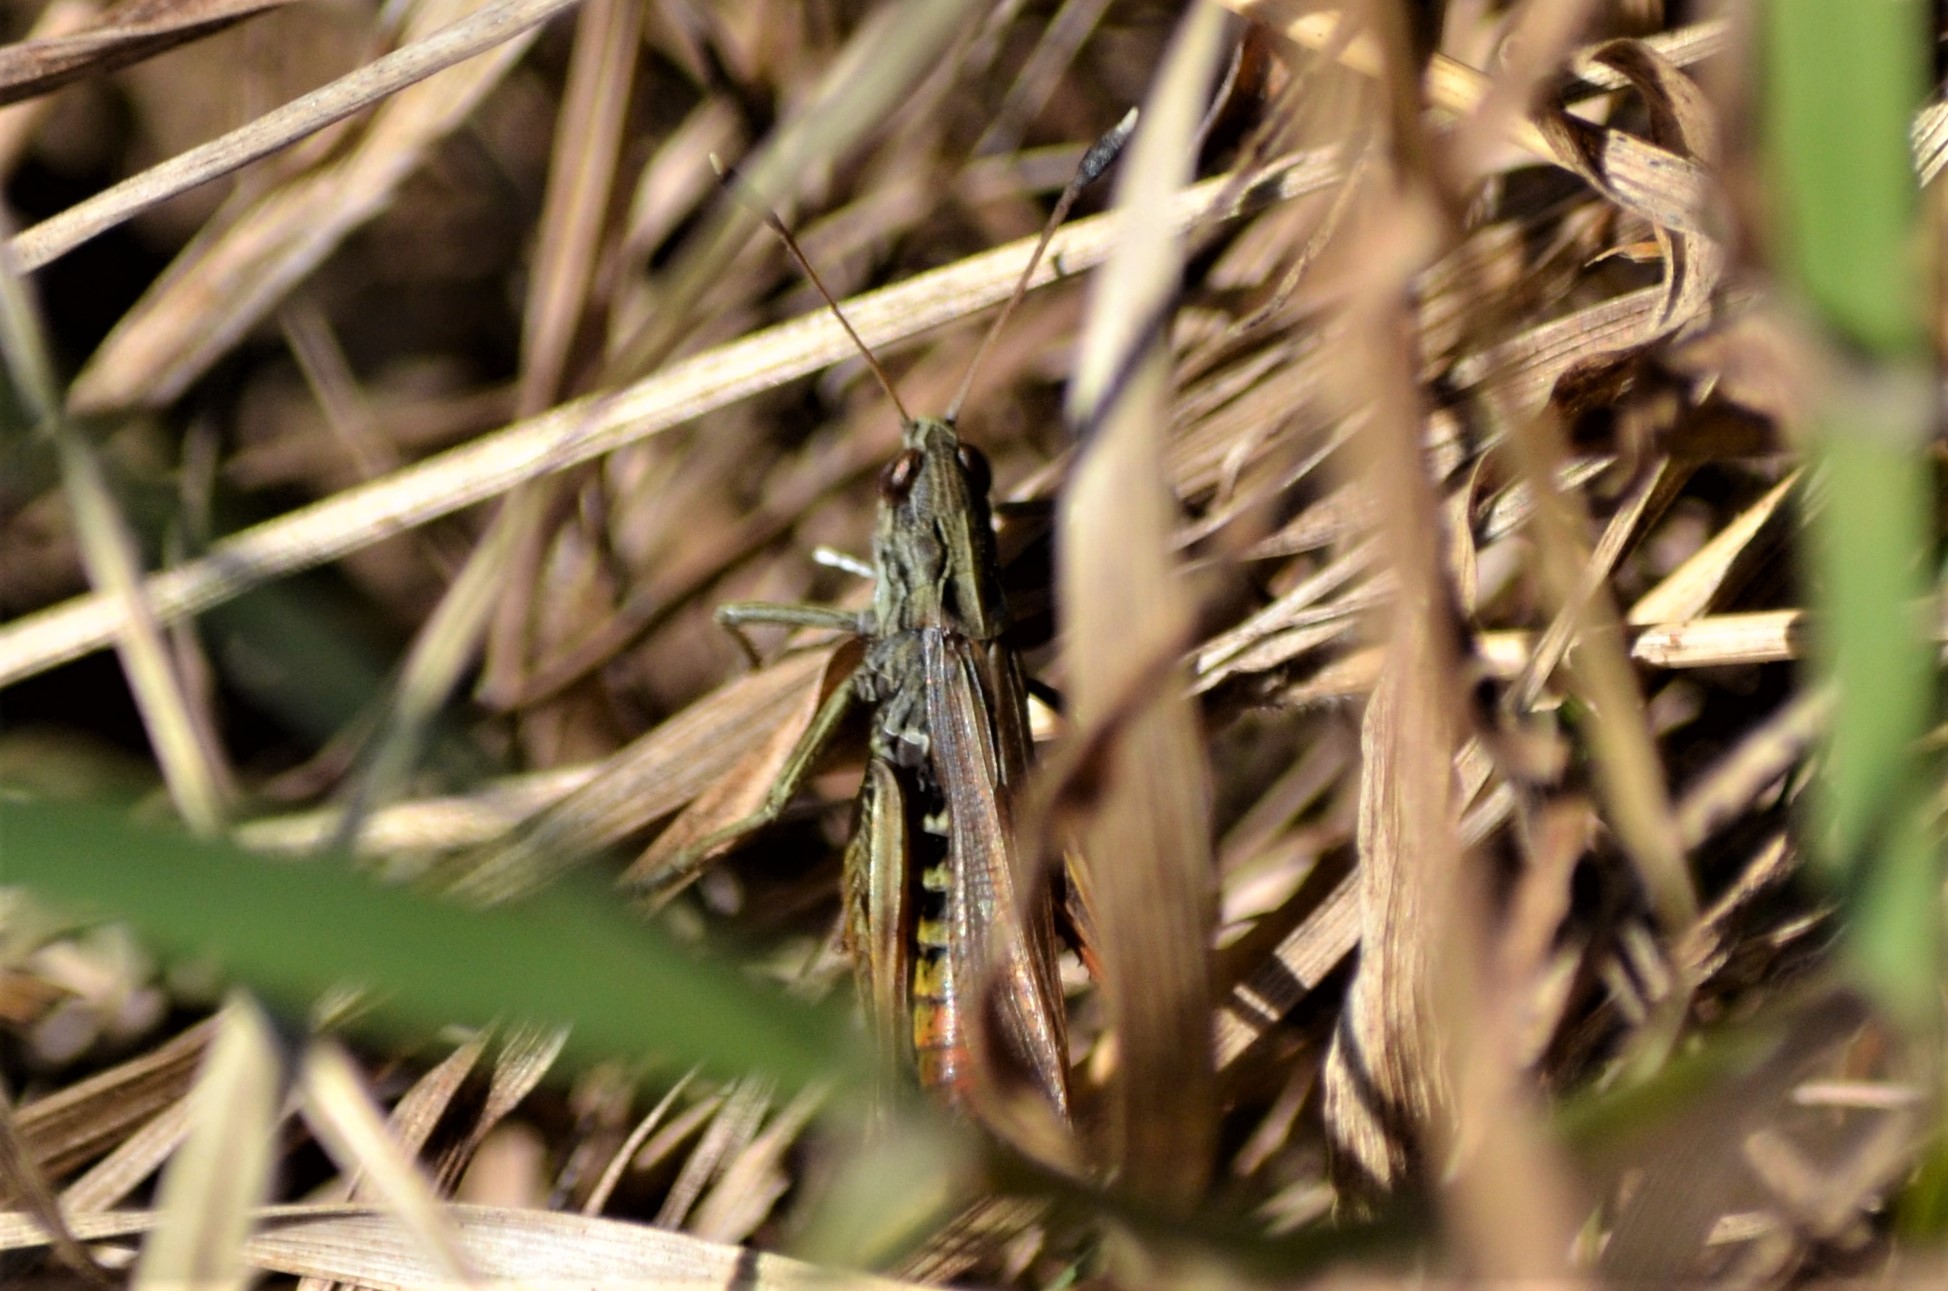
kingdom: Animalia
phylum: Arthropoda
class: Insecta
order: Orthoptera
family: Acrididae
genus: Gomphocerippus
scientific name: Gomphocerippus rufus
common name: Rufous grasshopper
